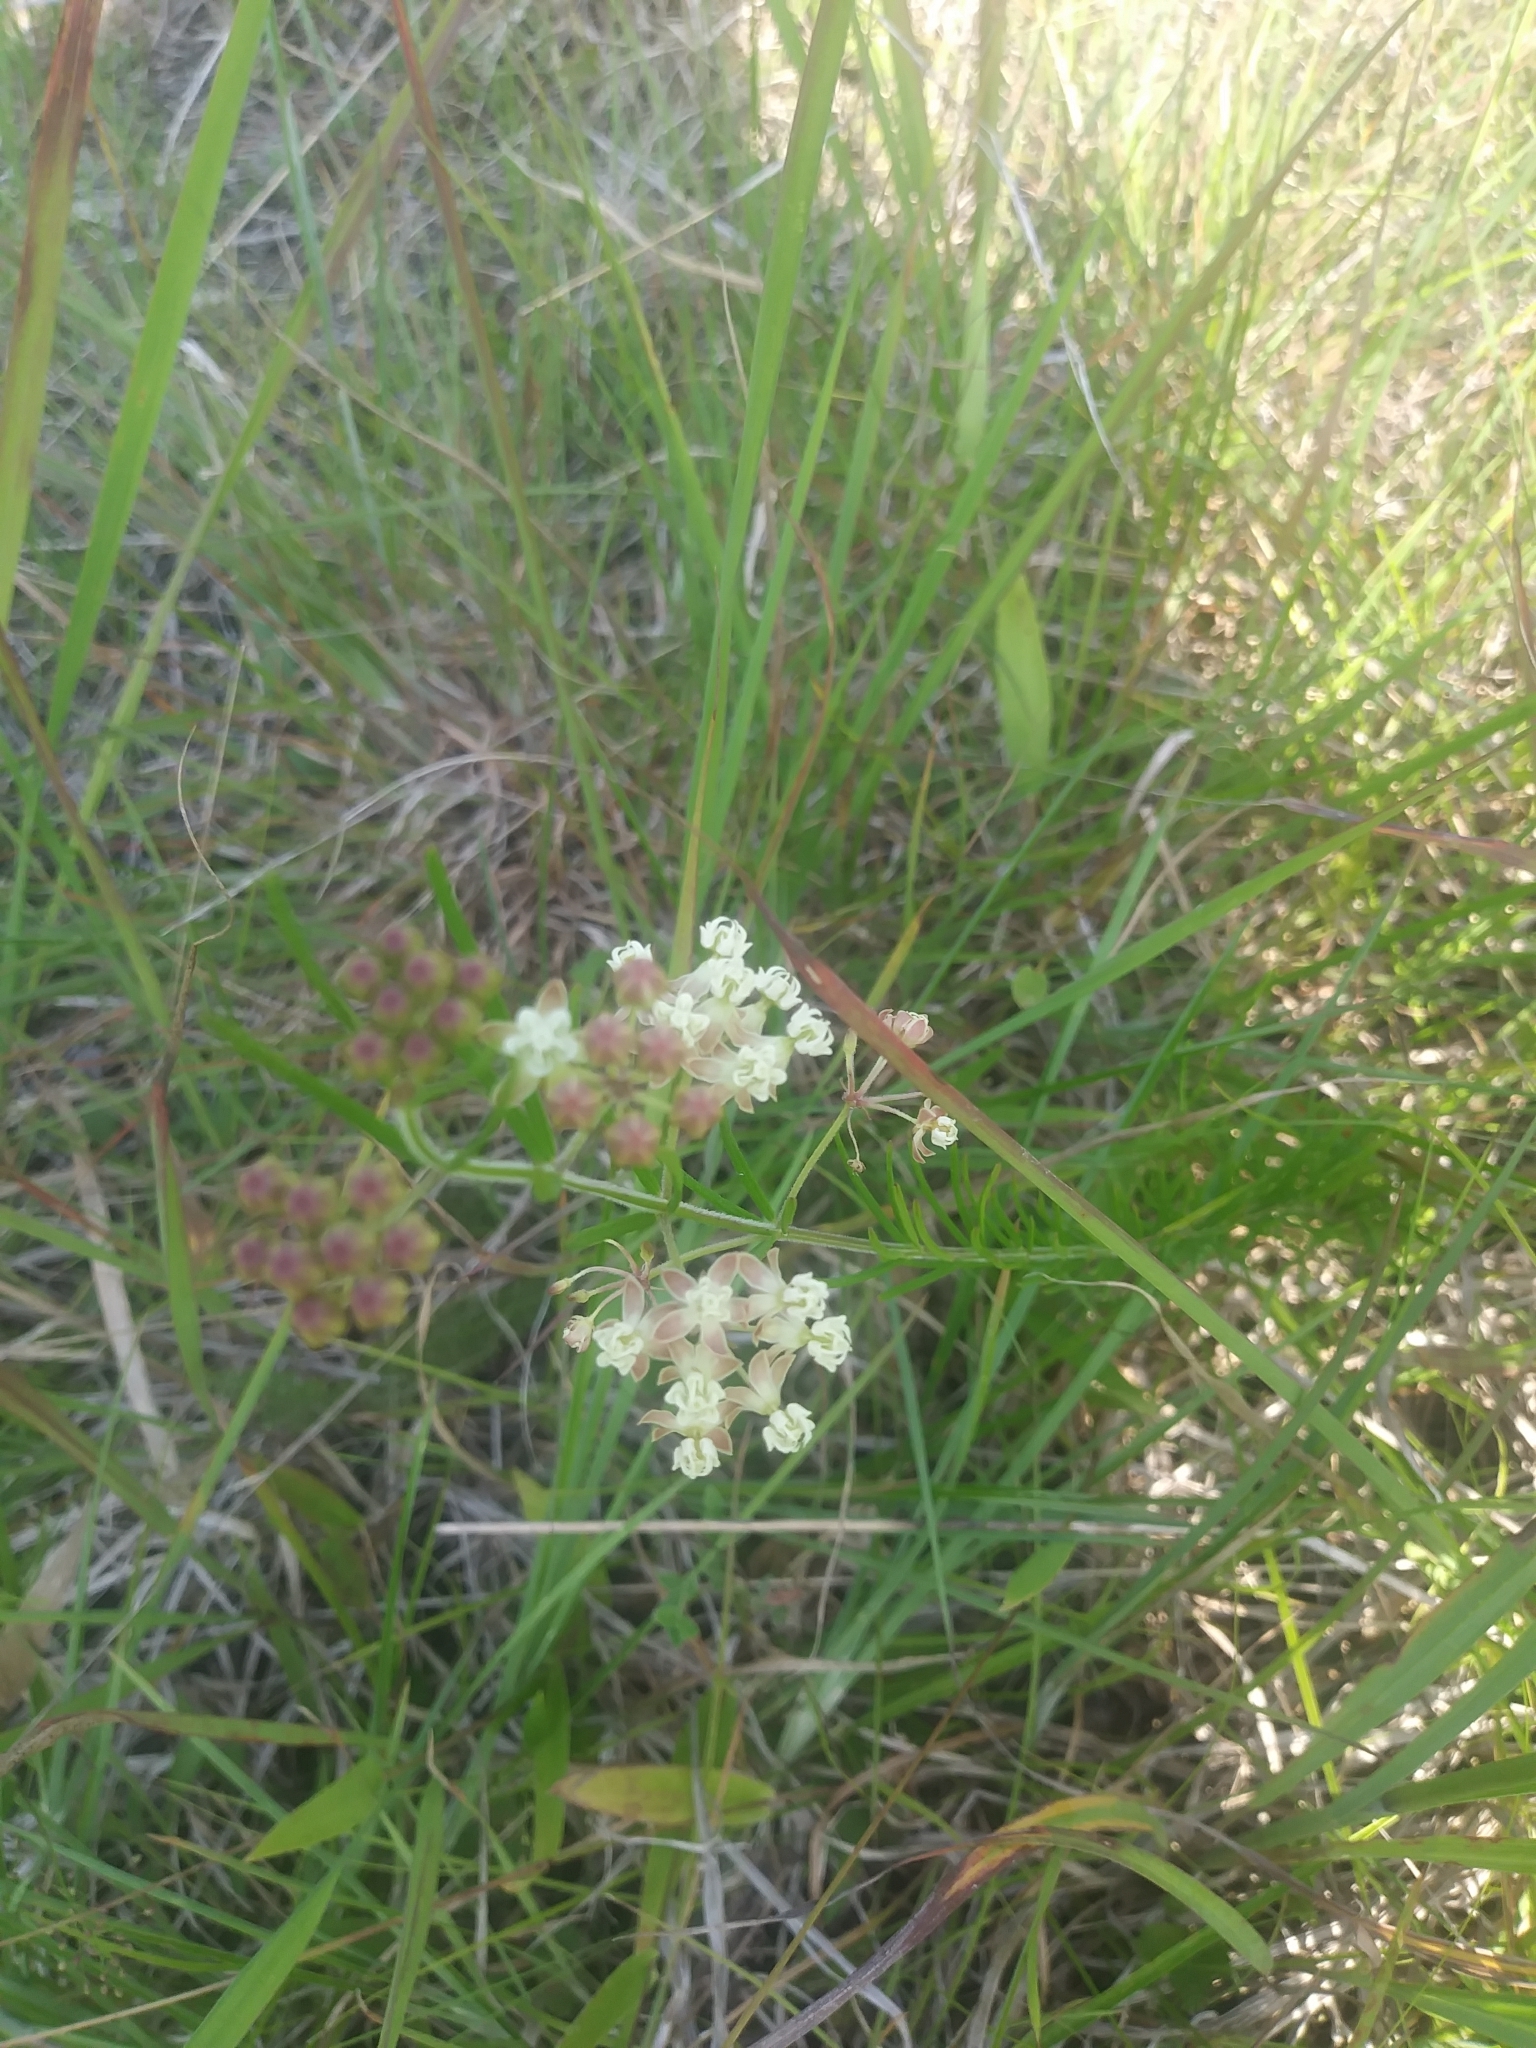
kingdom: Plantae
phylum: Tracheophyta
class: Magnoliopsida
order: Gentianales
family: Apocynaceae
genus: Asclepias
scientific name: Asclepias verticillata
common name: Eastern whorled milkweed
